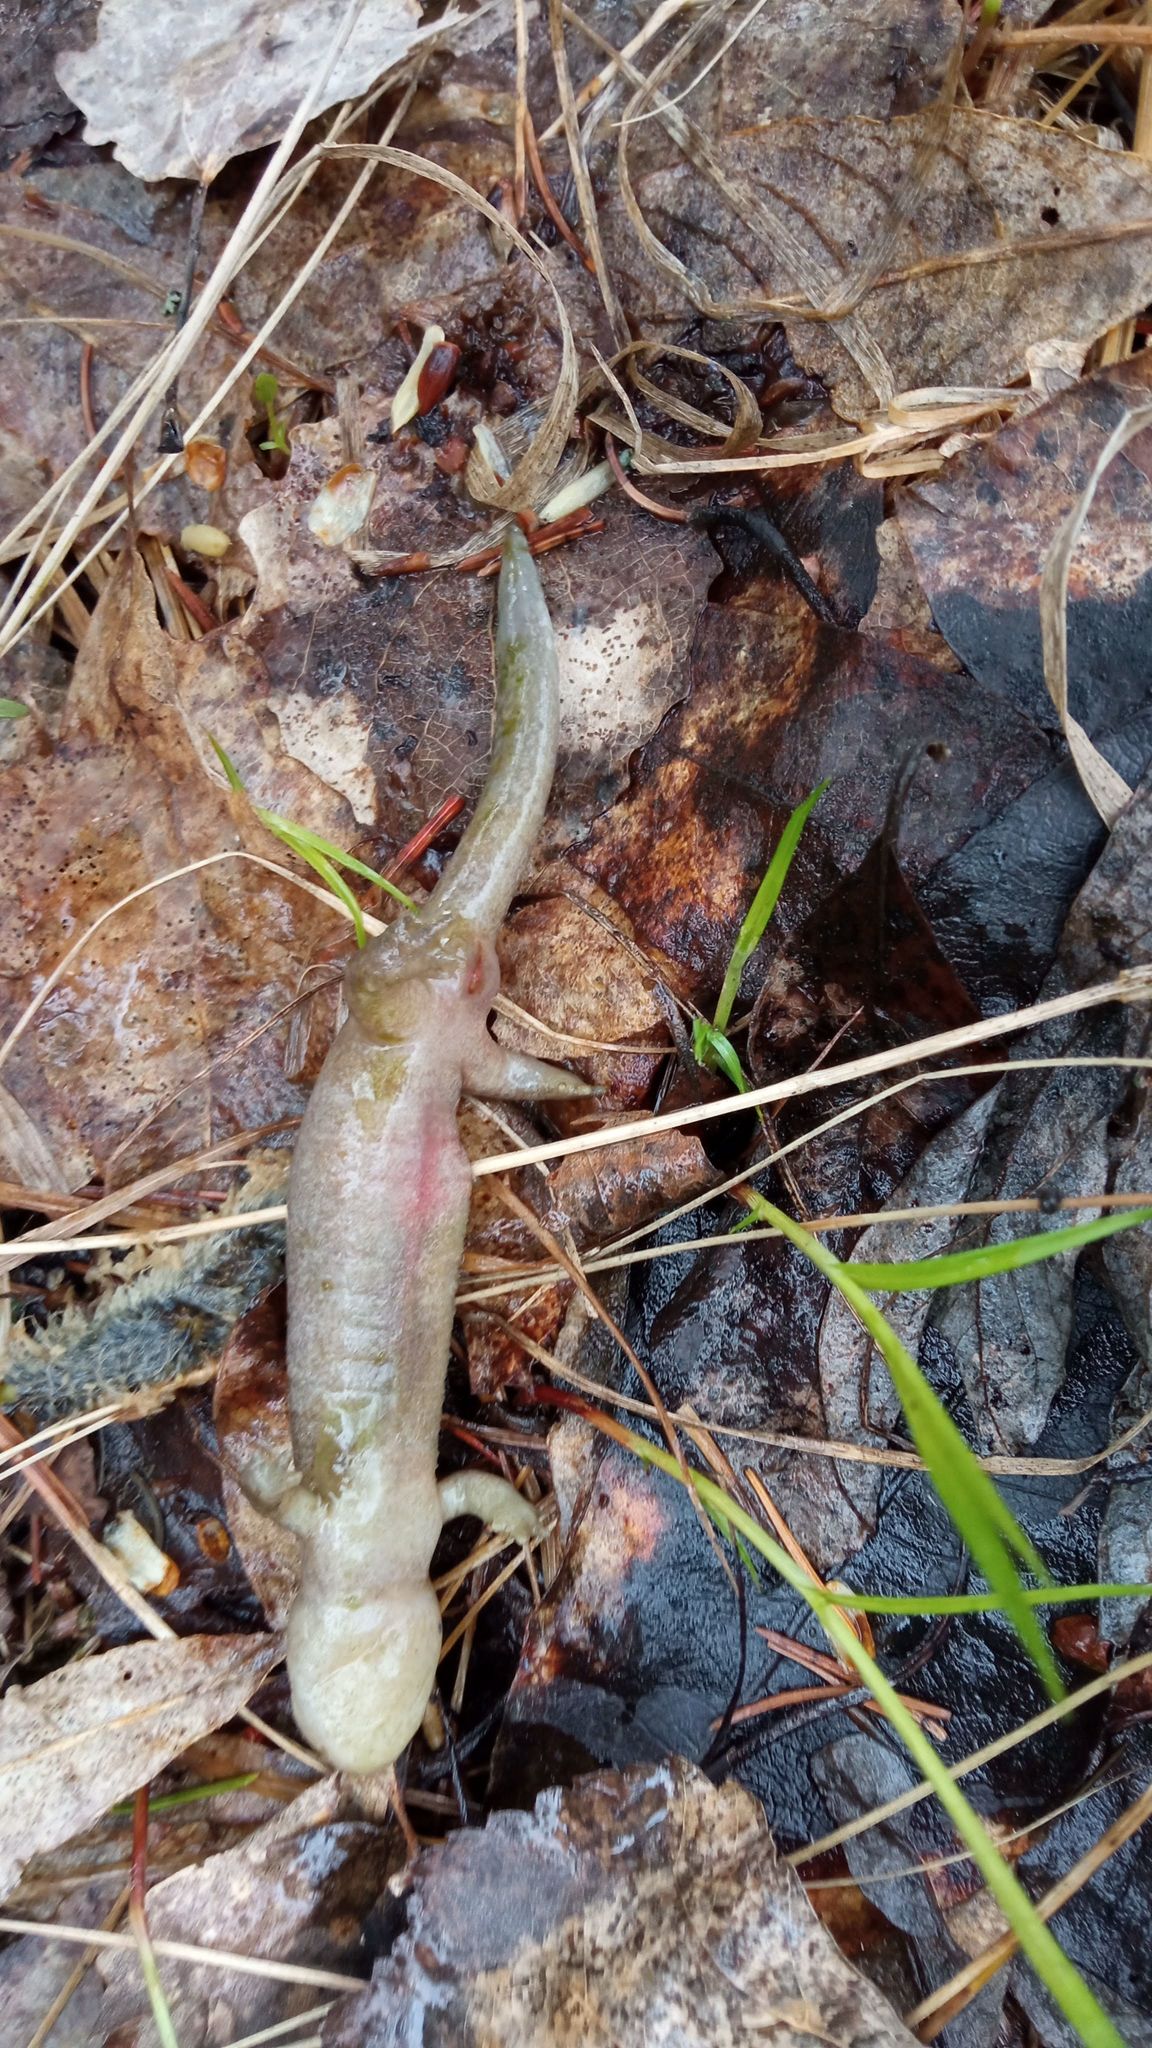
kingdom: Animalia
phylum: Chordata
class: Amphibia
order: Caudata
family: Hynobiidae
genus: Salamandrella
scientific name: Salamandrella keyserlingii
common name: Dybowski's salamander
